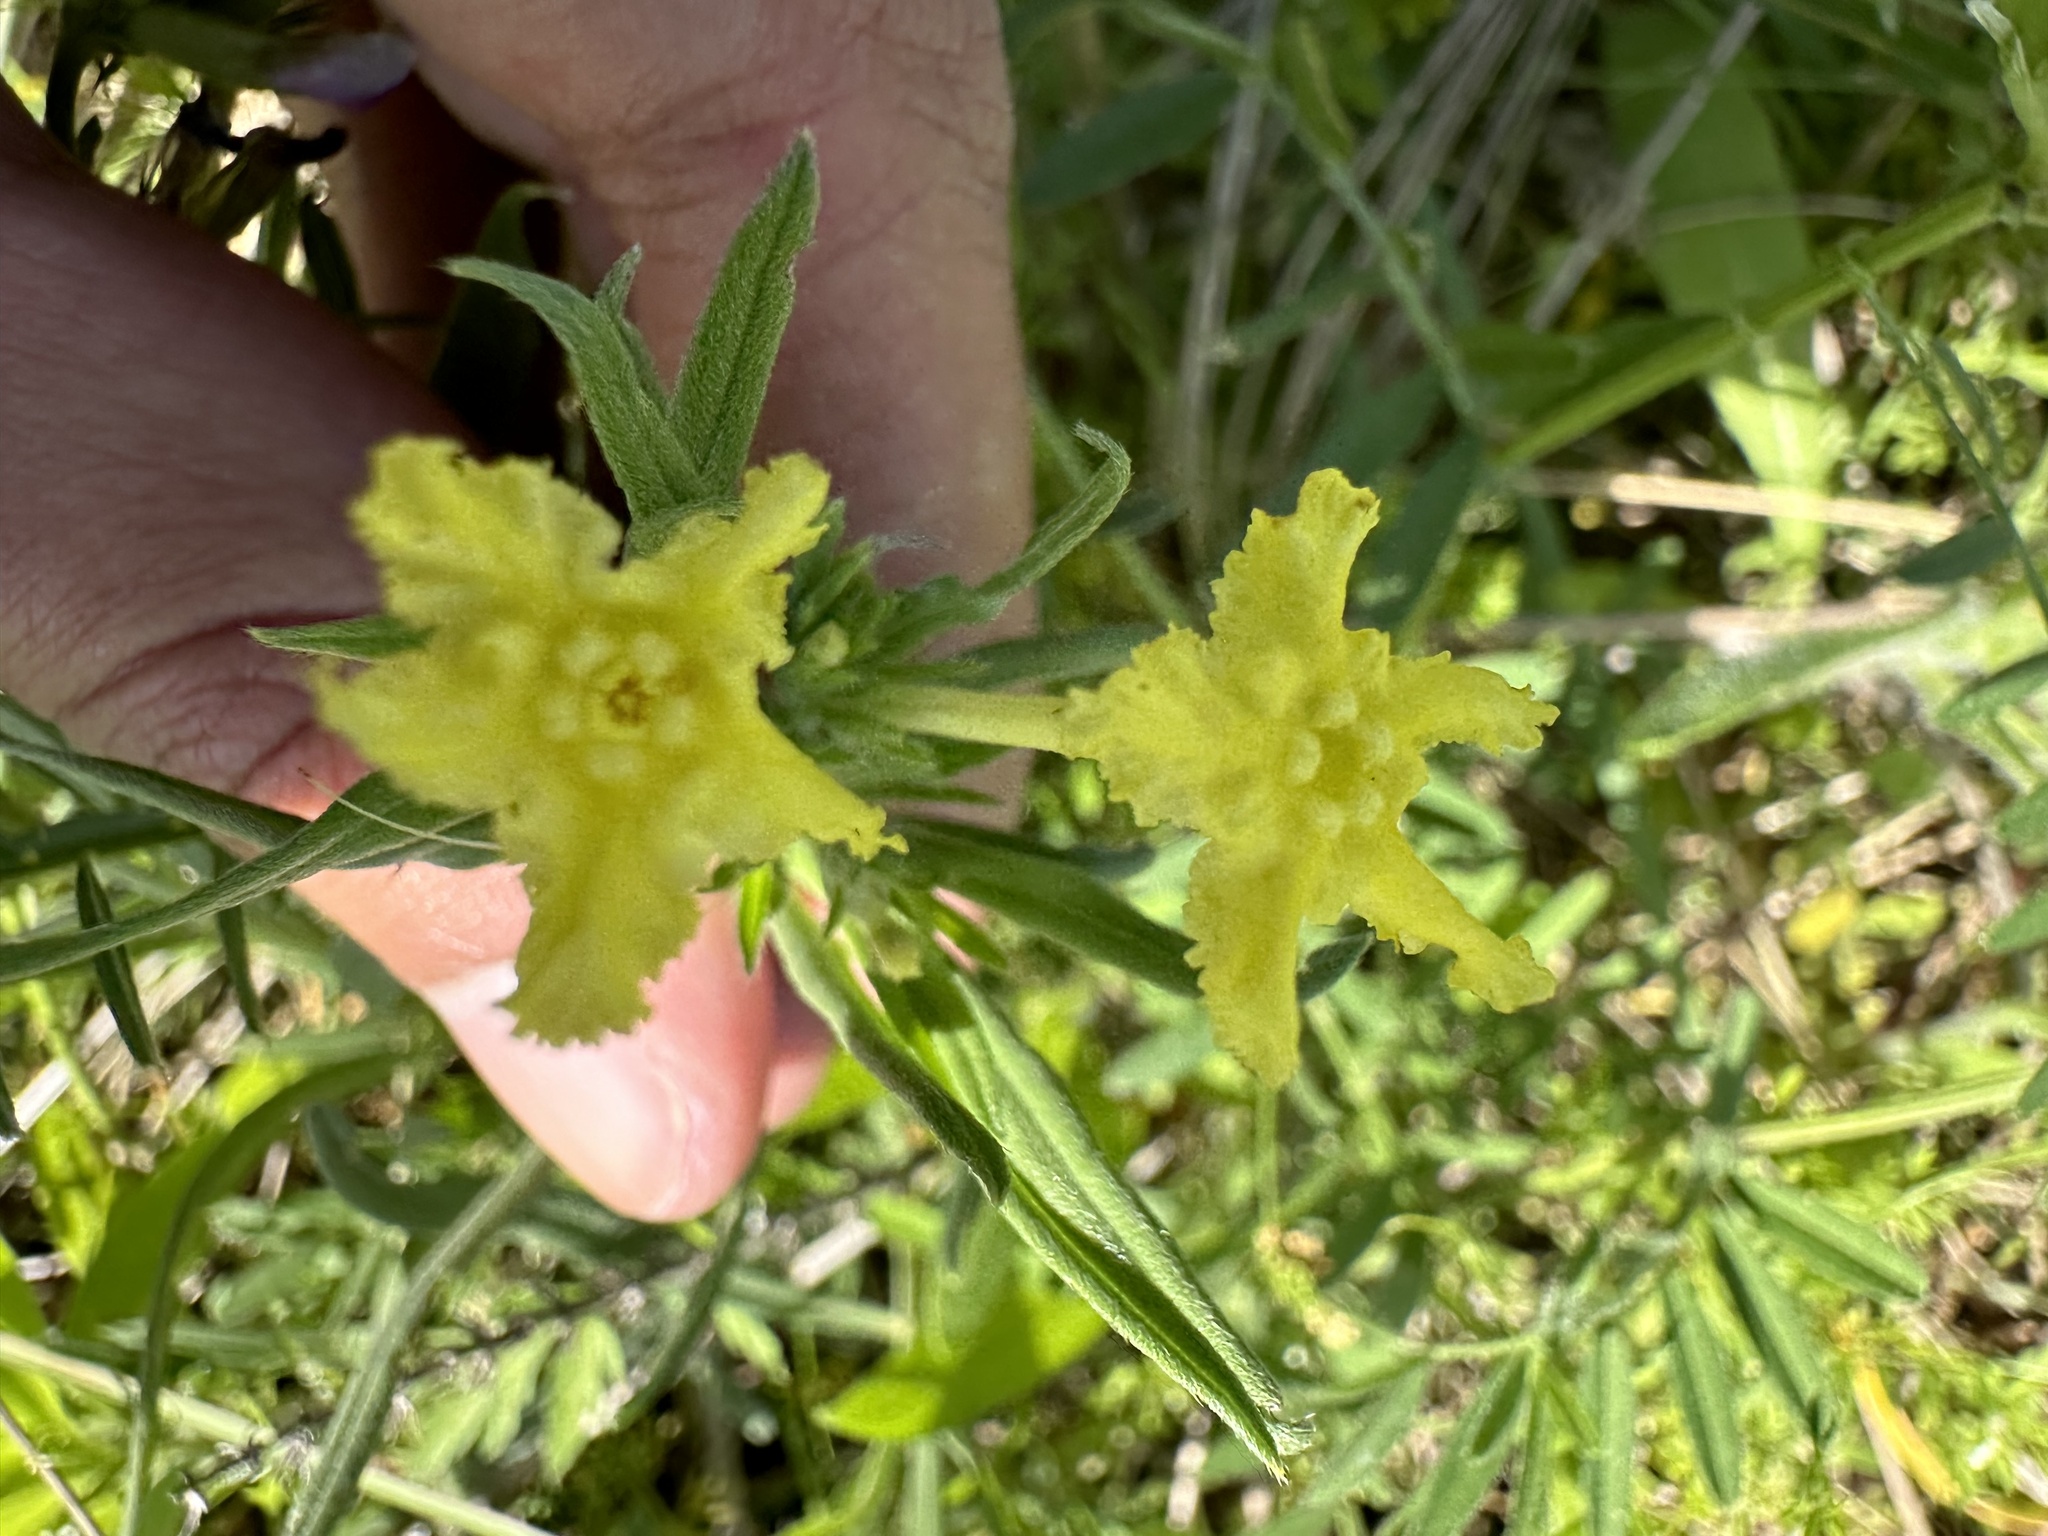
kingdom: Plantae
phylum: Tracheophyta
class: Magnoliopsida
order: Boraginales
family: Boraginaceae
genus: Lithospermum
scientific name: Lithospermum incisum
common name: Fringed gromwell
